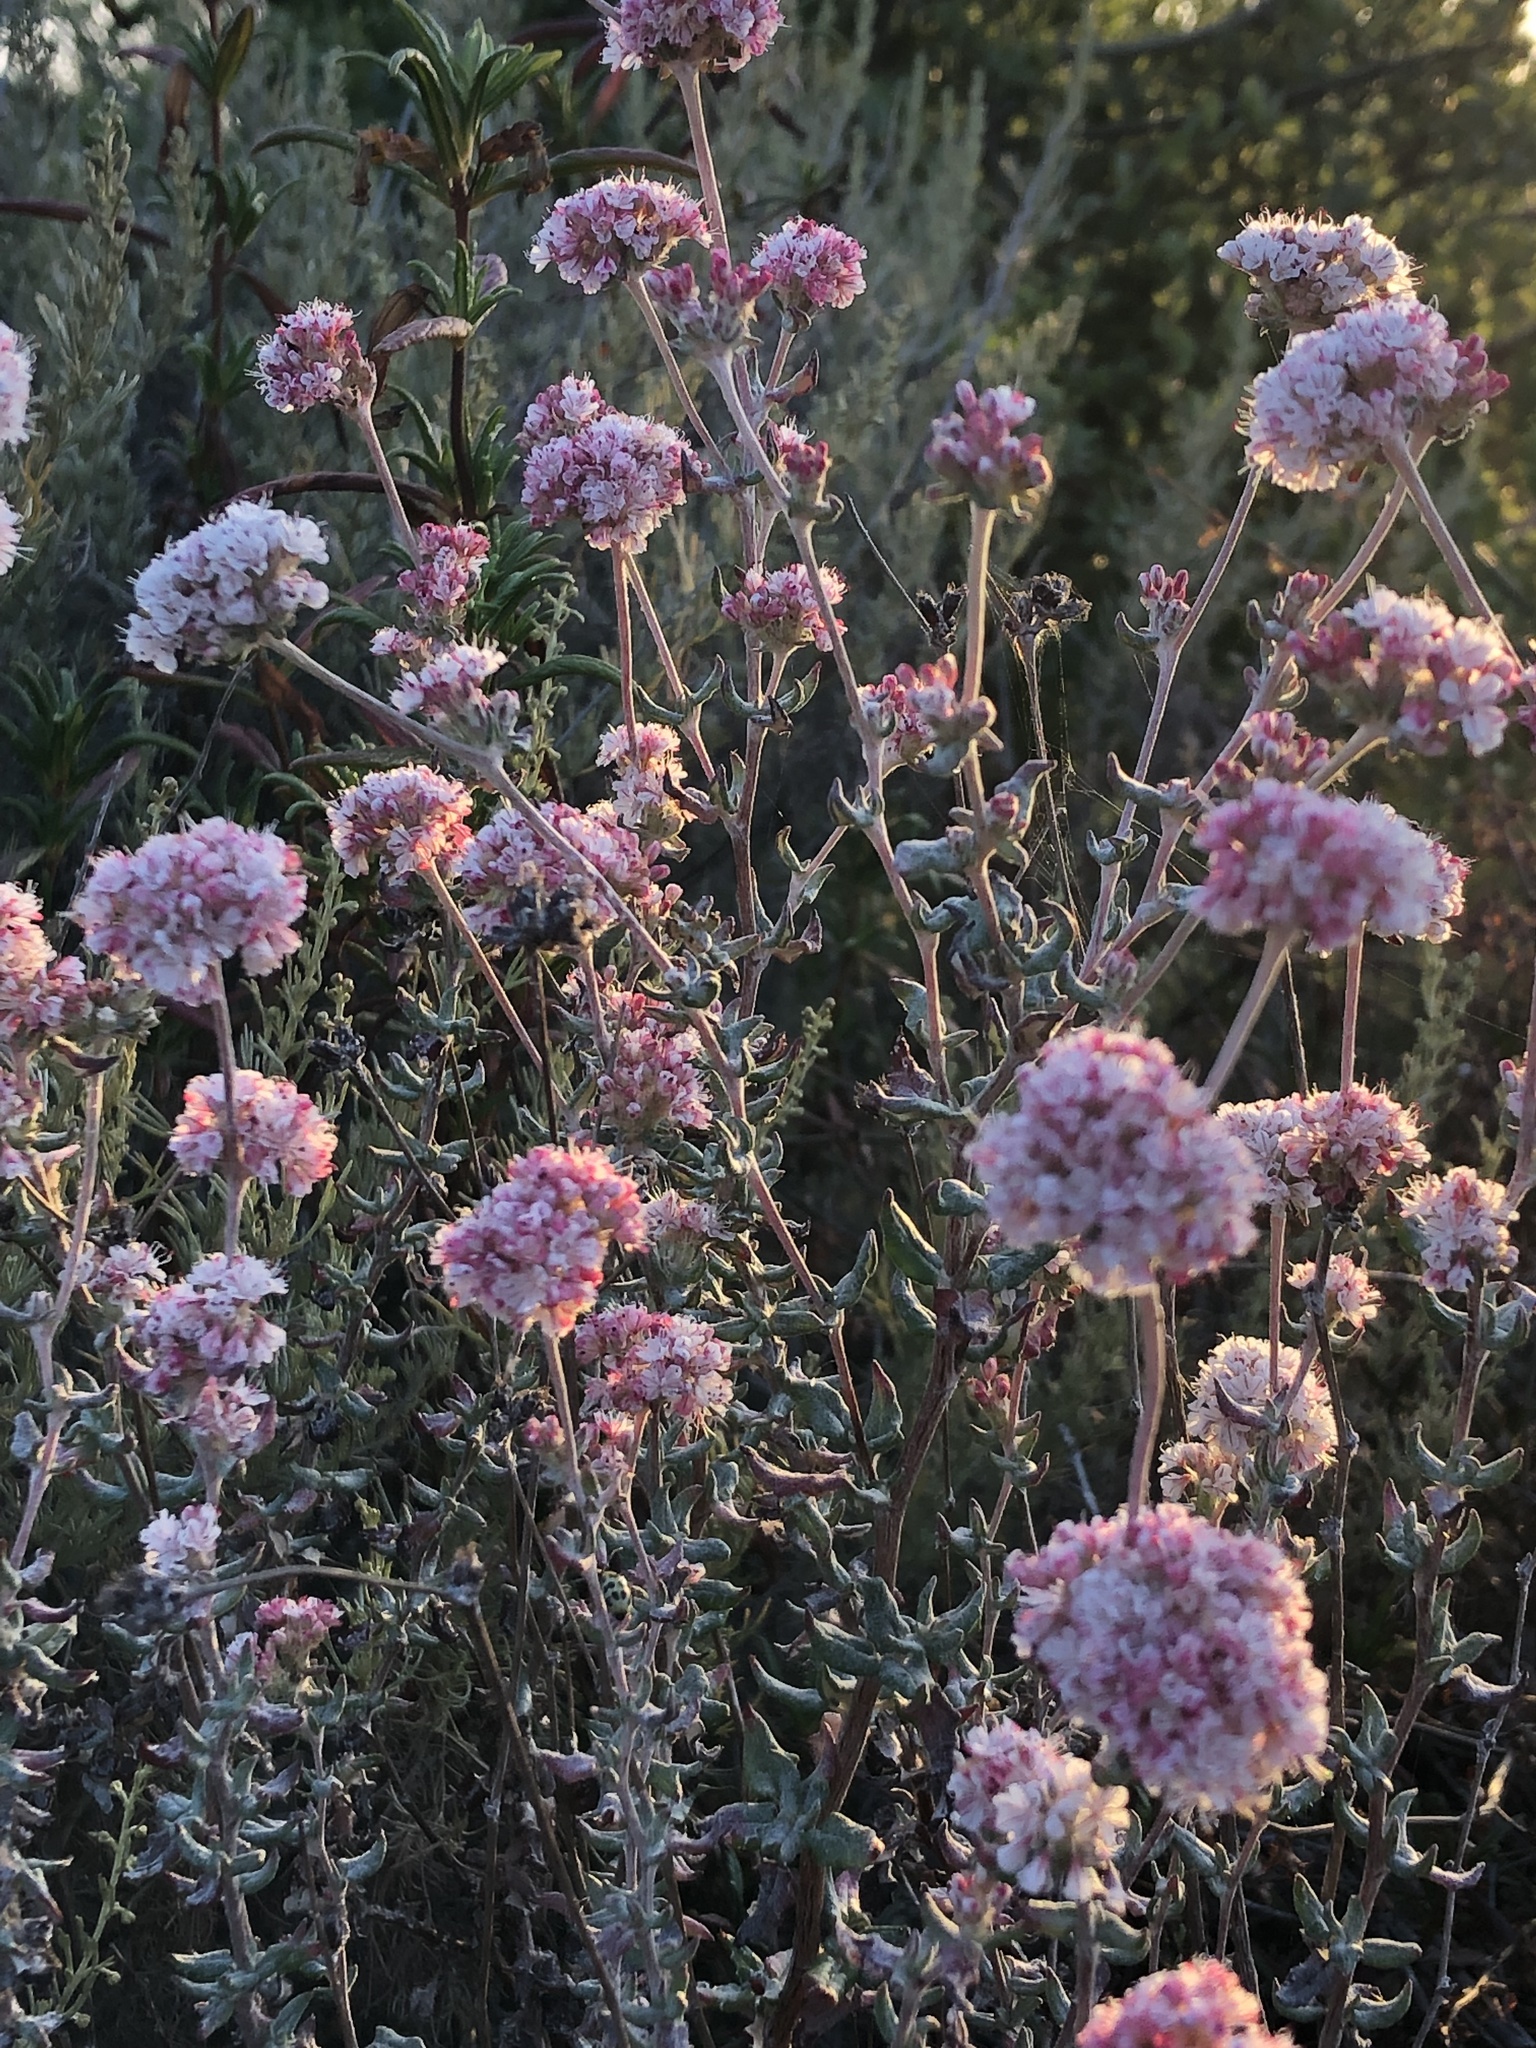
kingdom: Plantae
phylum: Tracheophyta
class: Magnoliopsida
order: Caryophyllales
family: Polygonaceae
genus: Eriogonum
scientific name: Eriogonum parvifolium
